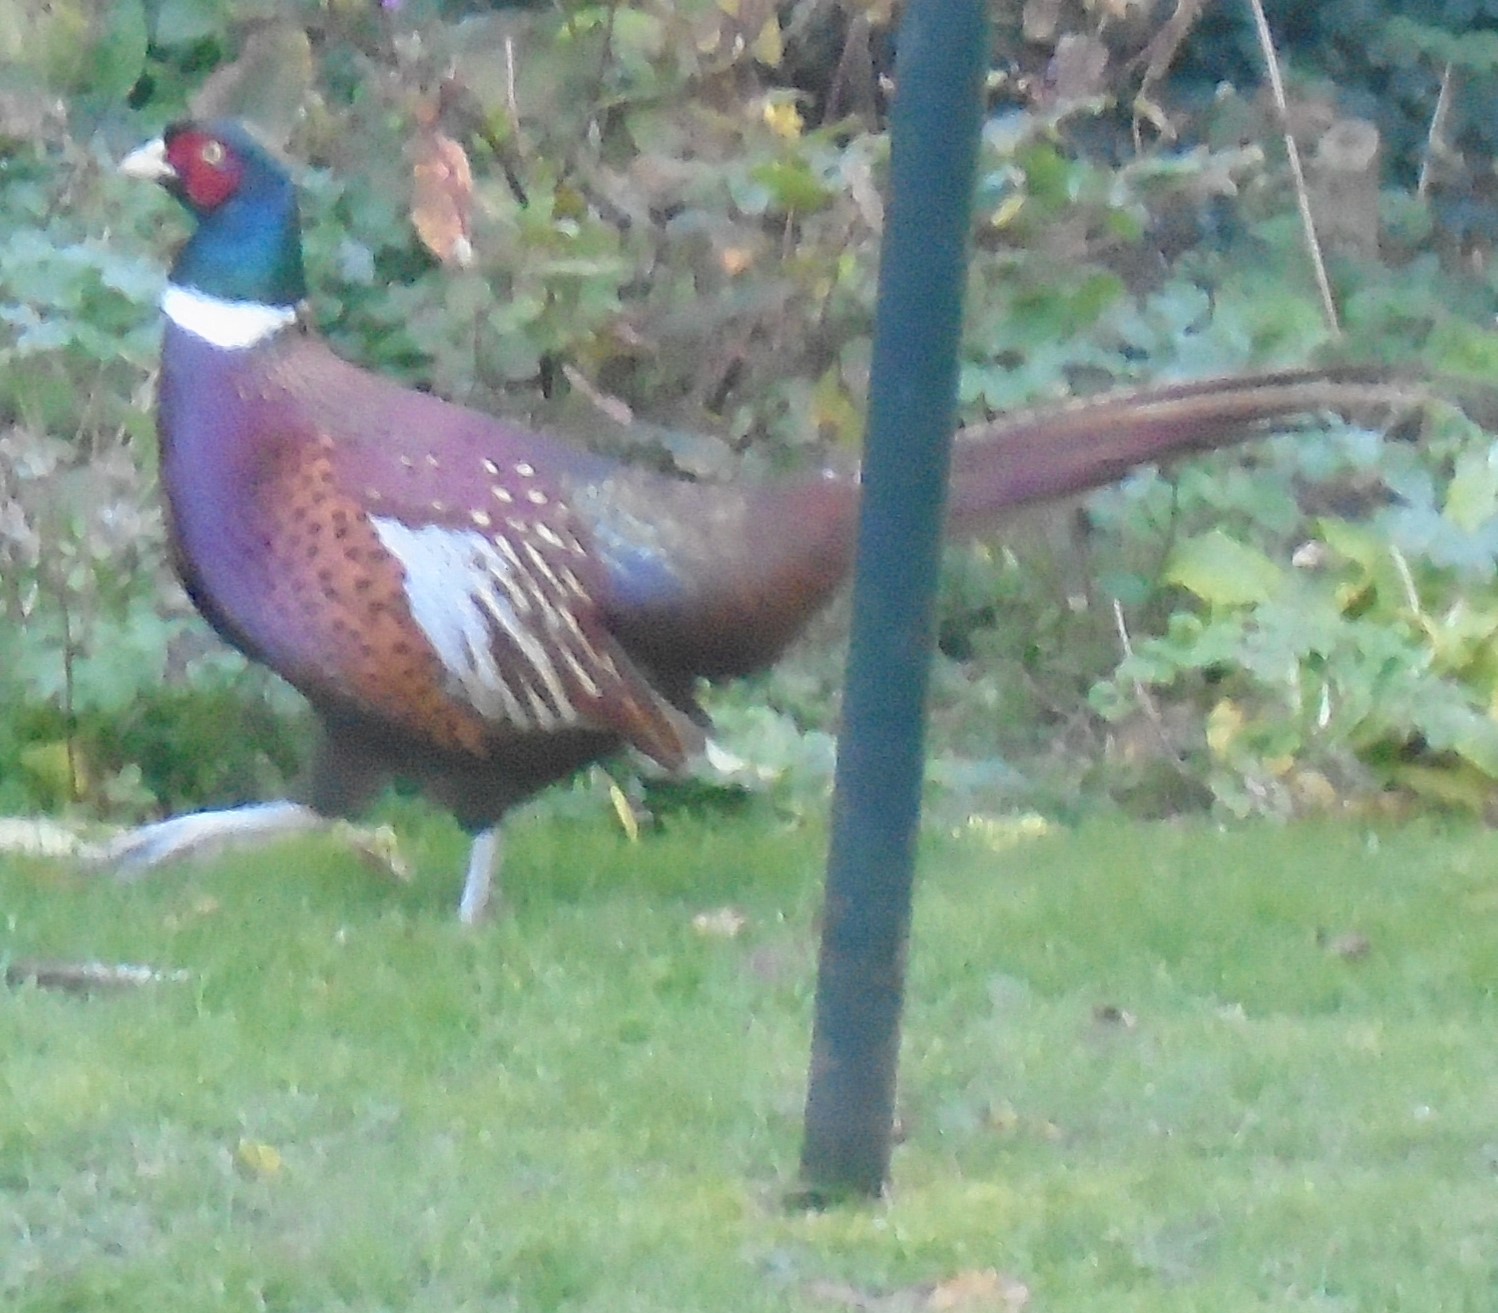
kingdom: Animalia
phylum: Chordata
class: Aves
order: Galliformes
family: Phasianidae
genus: Phasianus
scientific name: Phasianus colchicus
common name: Common pheasant
